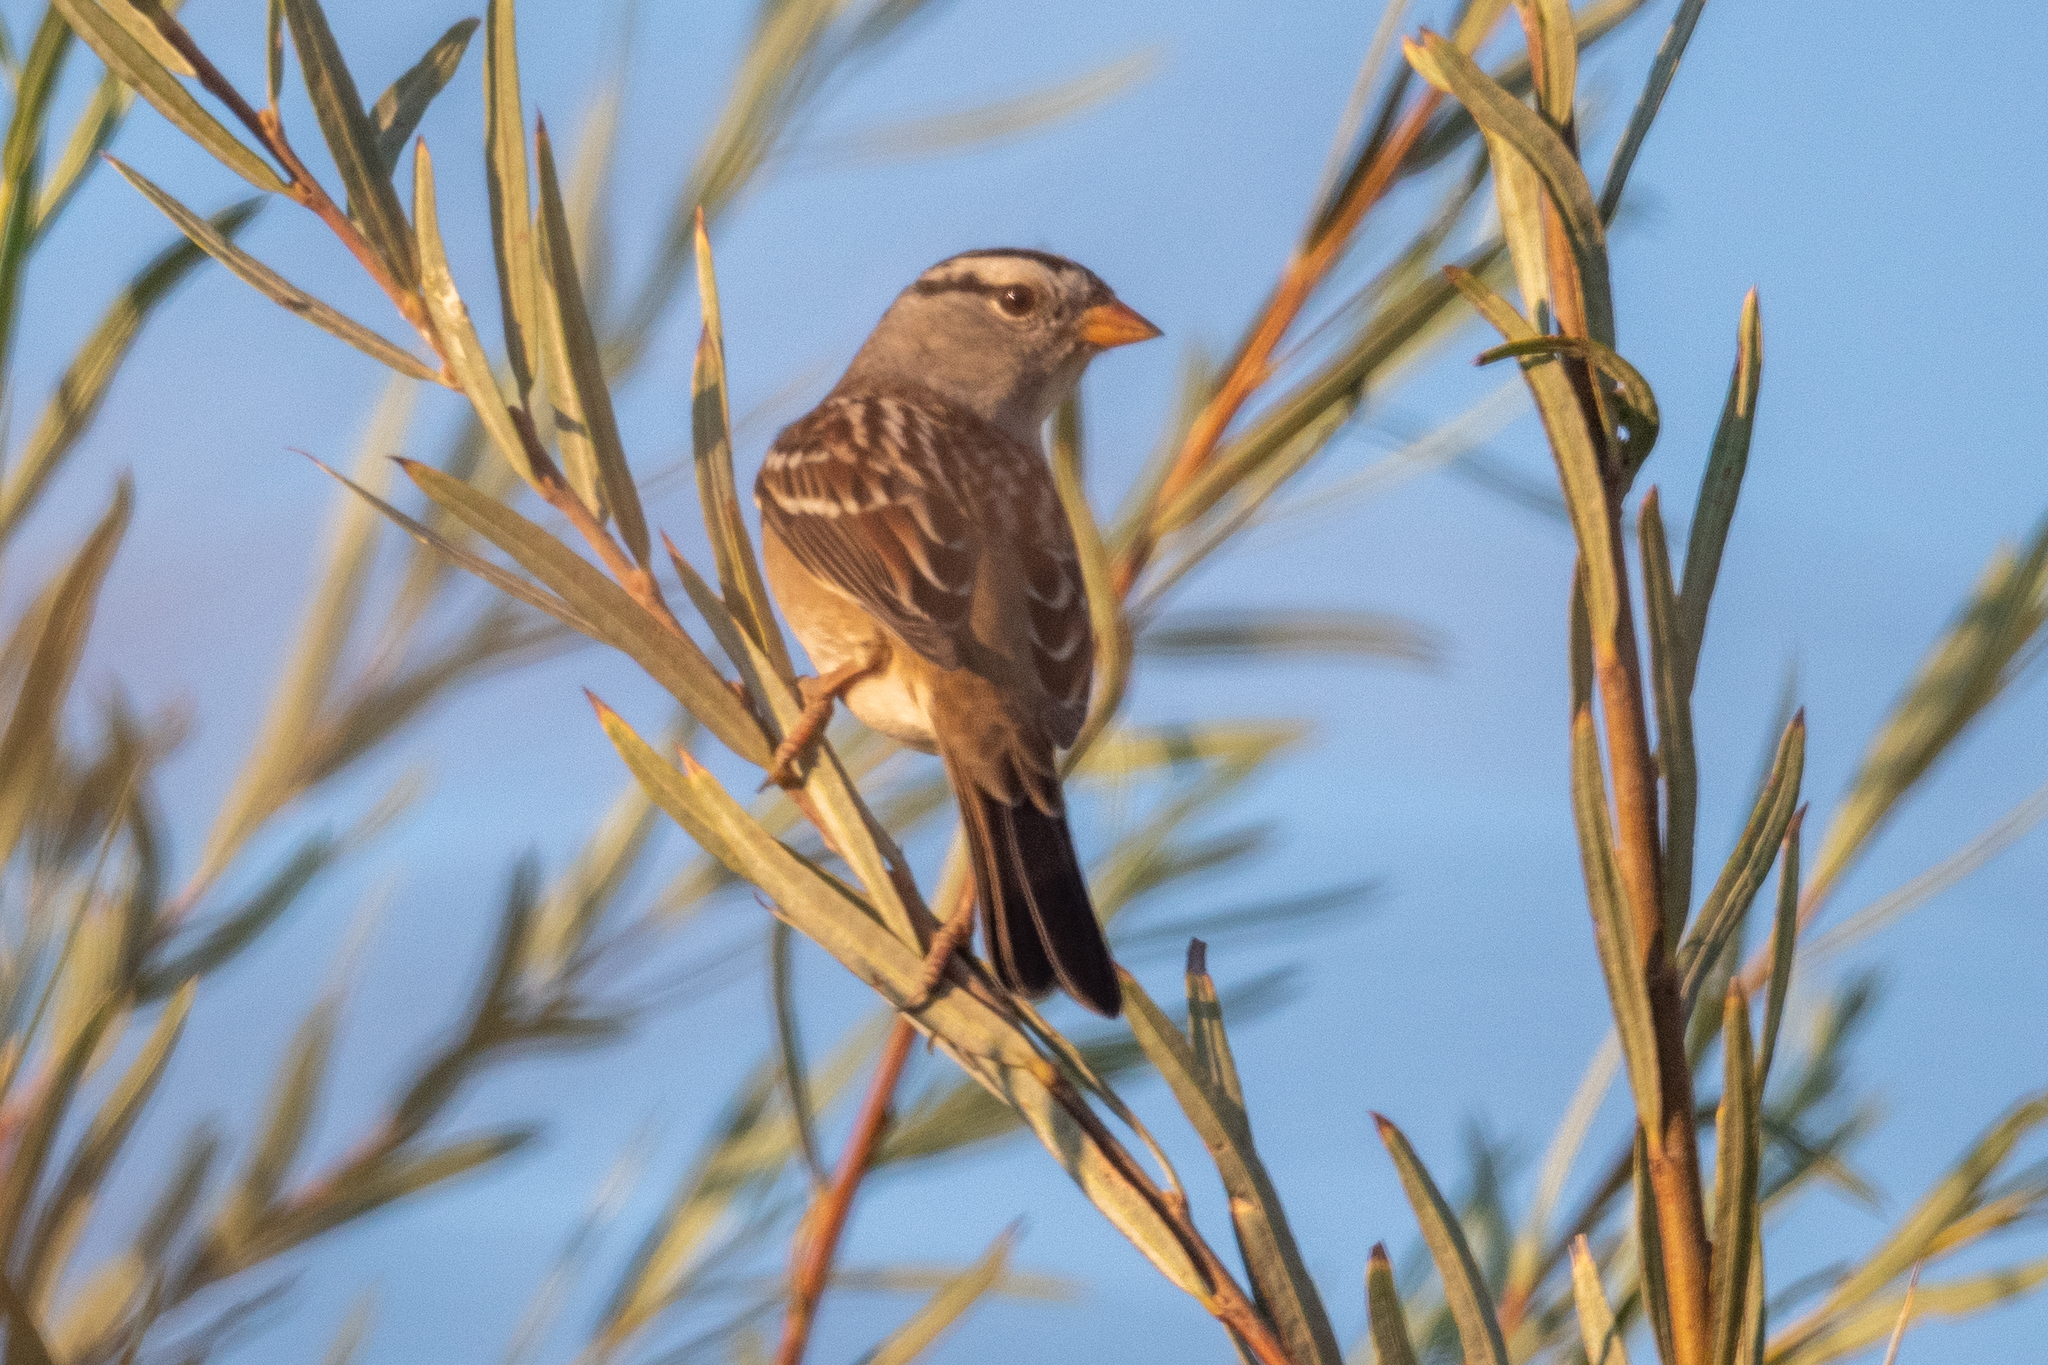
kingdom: Animalia
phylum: Chordata
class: Aves
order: Passeriformes
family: Passerellidae
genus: Zonotrichia
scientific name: Zonotrichia leucophrys
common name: White-crowned sparrow
